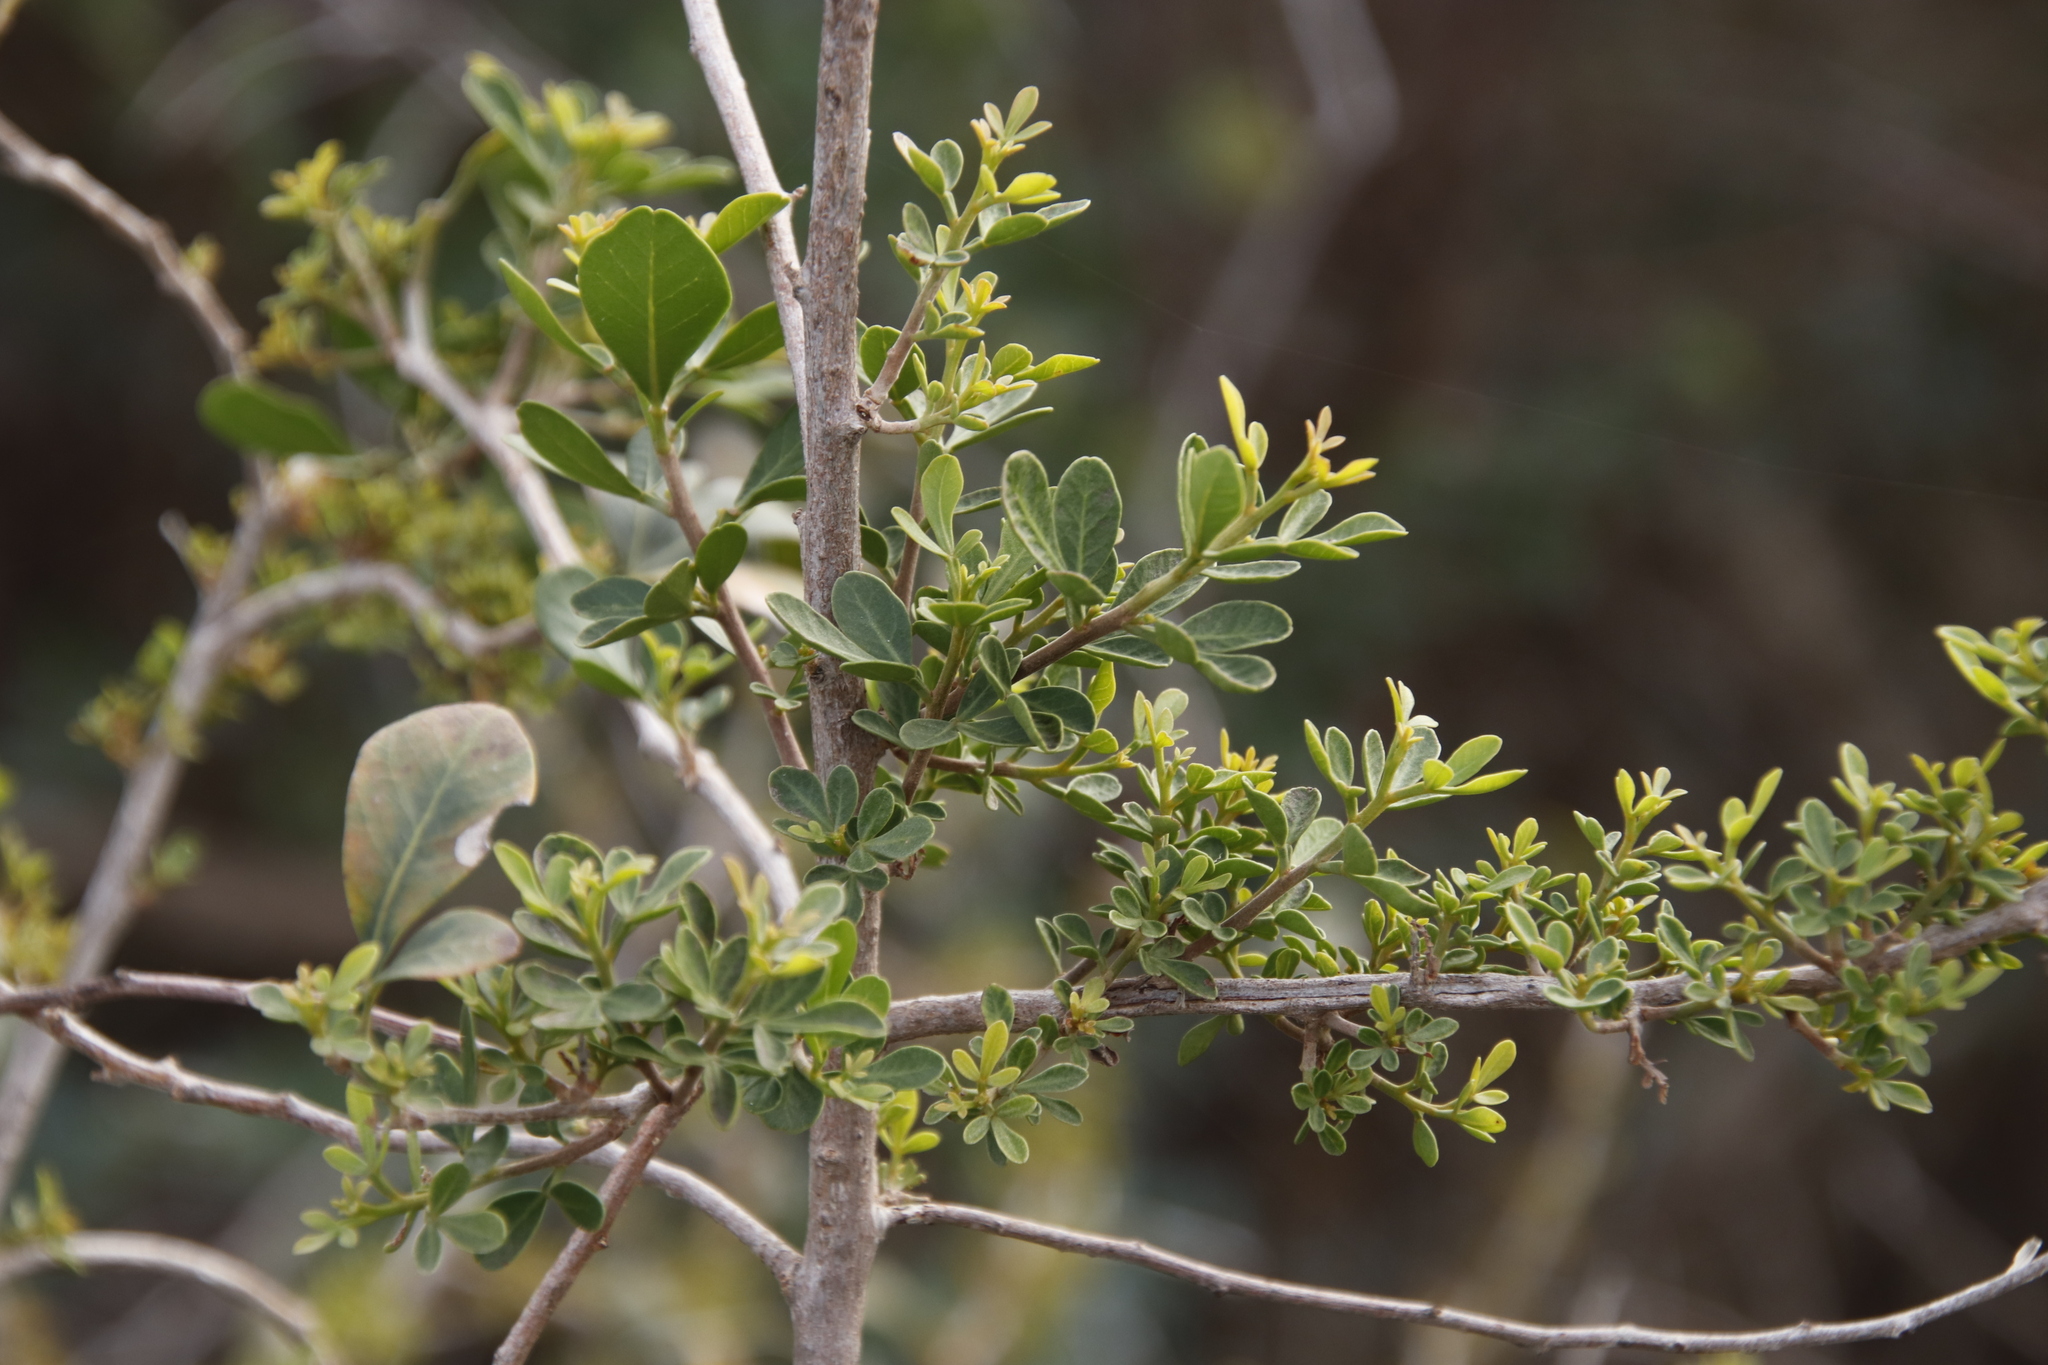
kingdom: Plantae
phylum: Tracheophyta
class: Magnoliopsida
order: Sapindales
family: Anacardiaceae
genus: Searsia
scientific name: Searsia lucida
